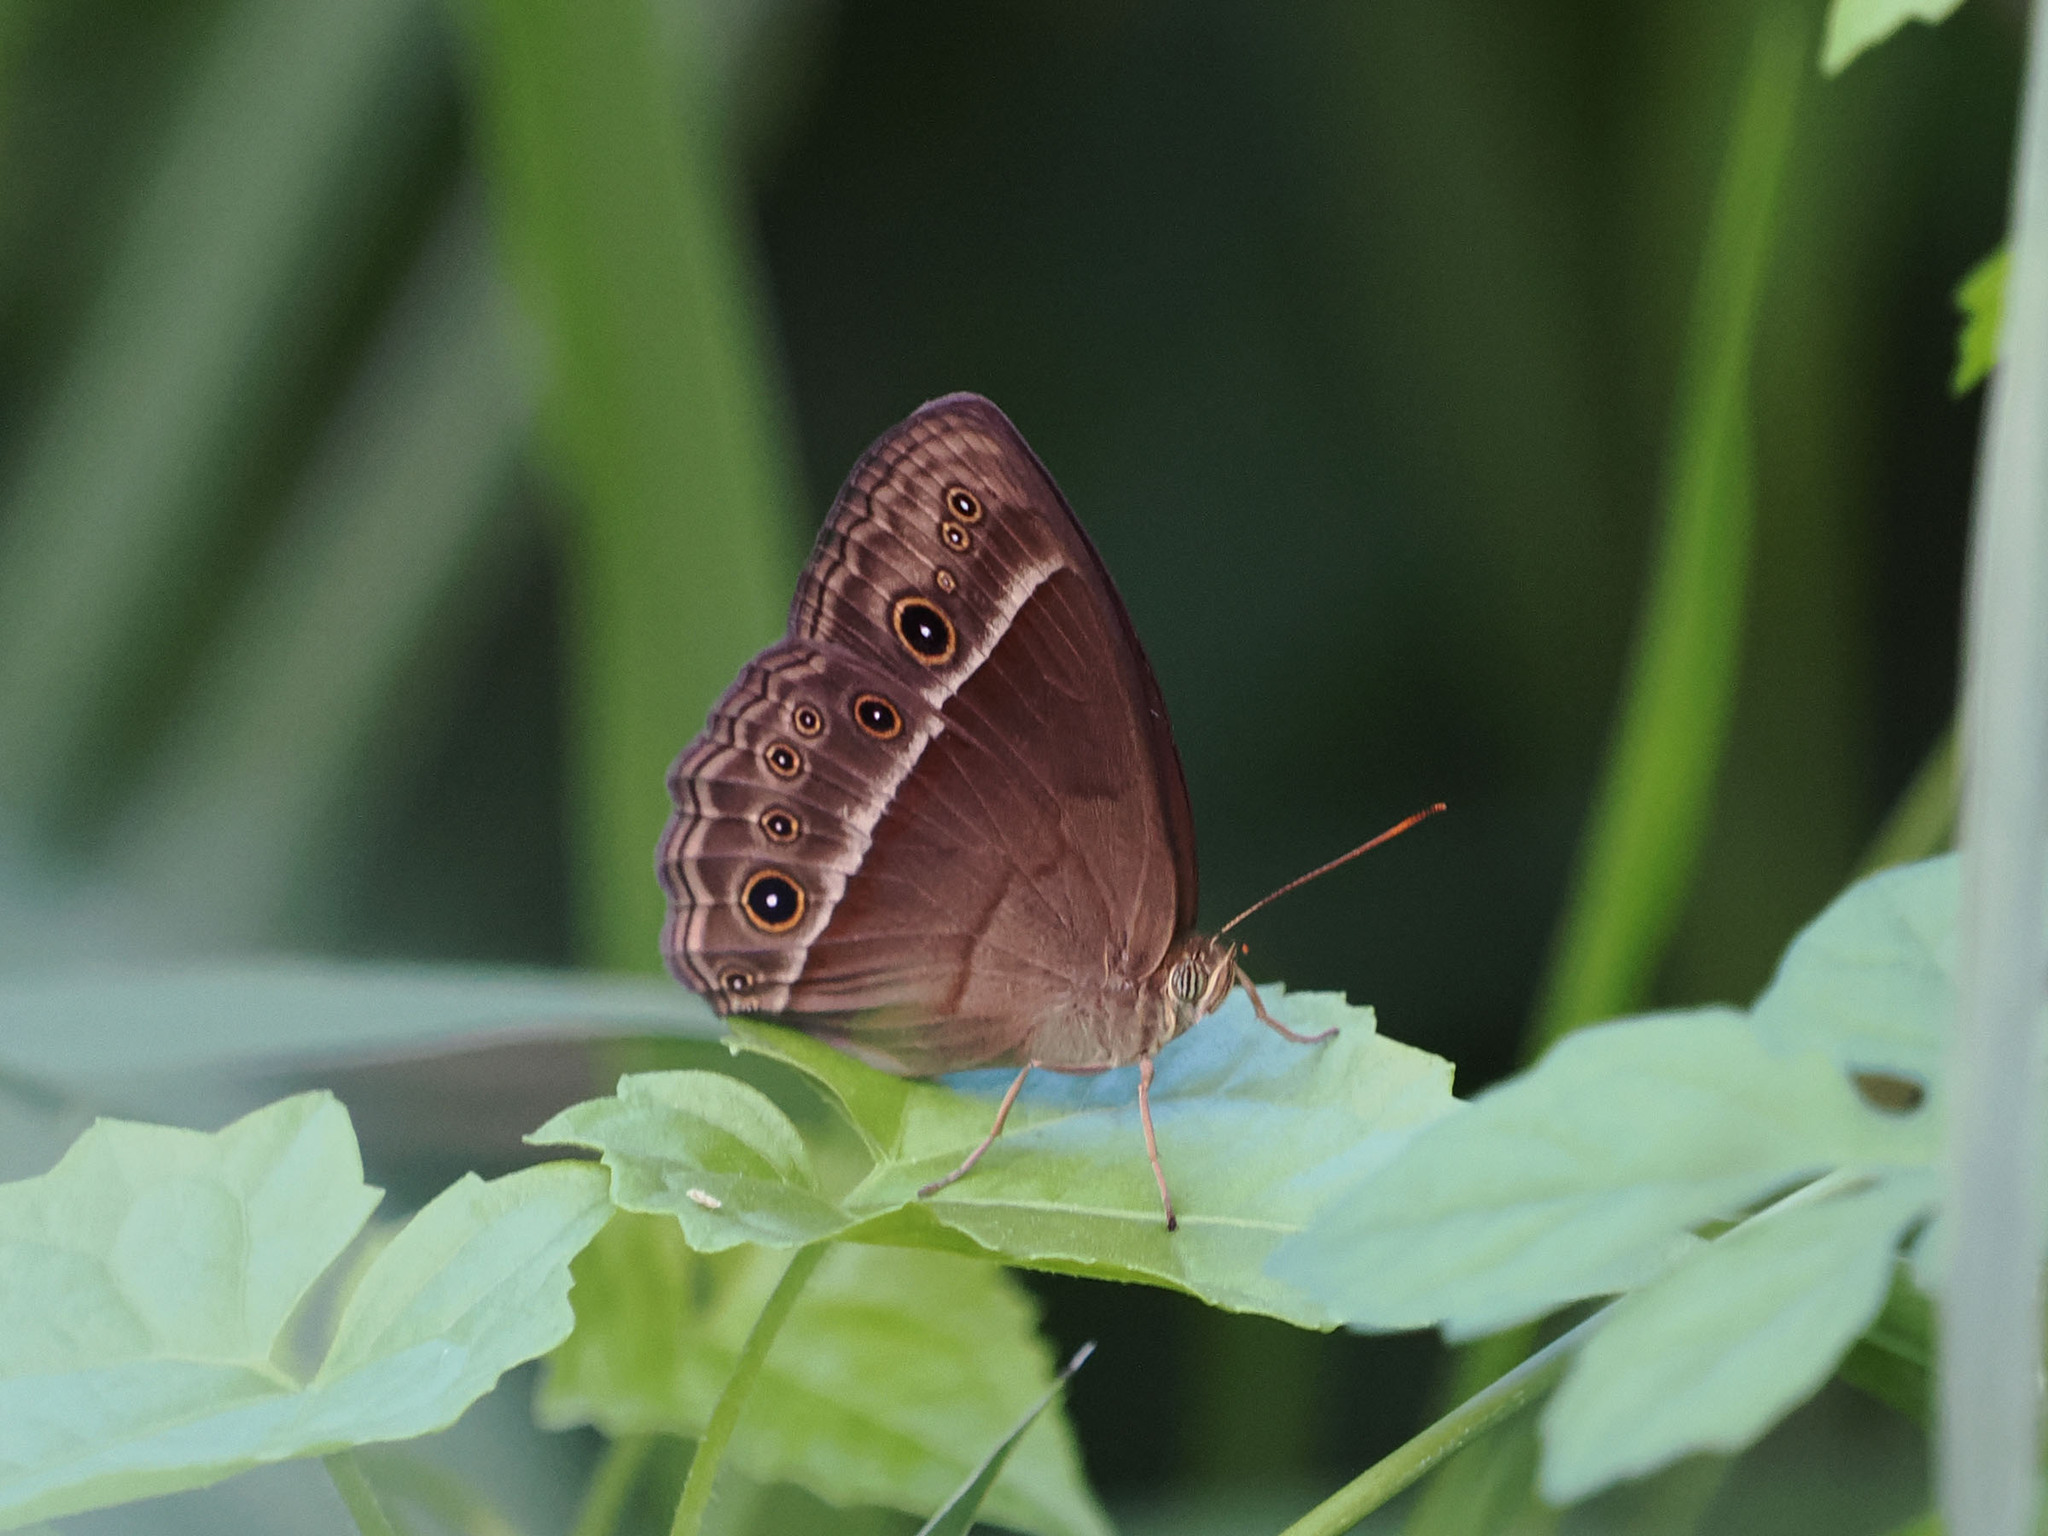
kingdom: Animalia
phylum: Arthropoda
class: Insecta
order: Lepidoptera
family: Nymphalidae
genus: Mycalesis
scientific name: Mycalesis tagala
